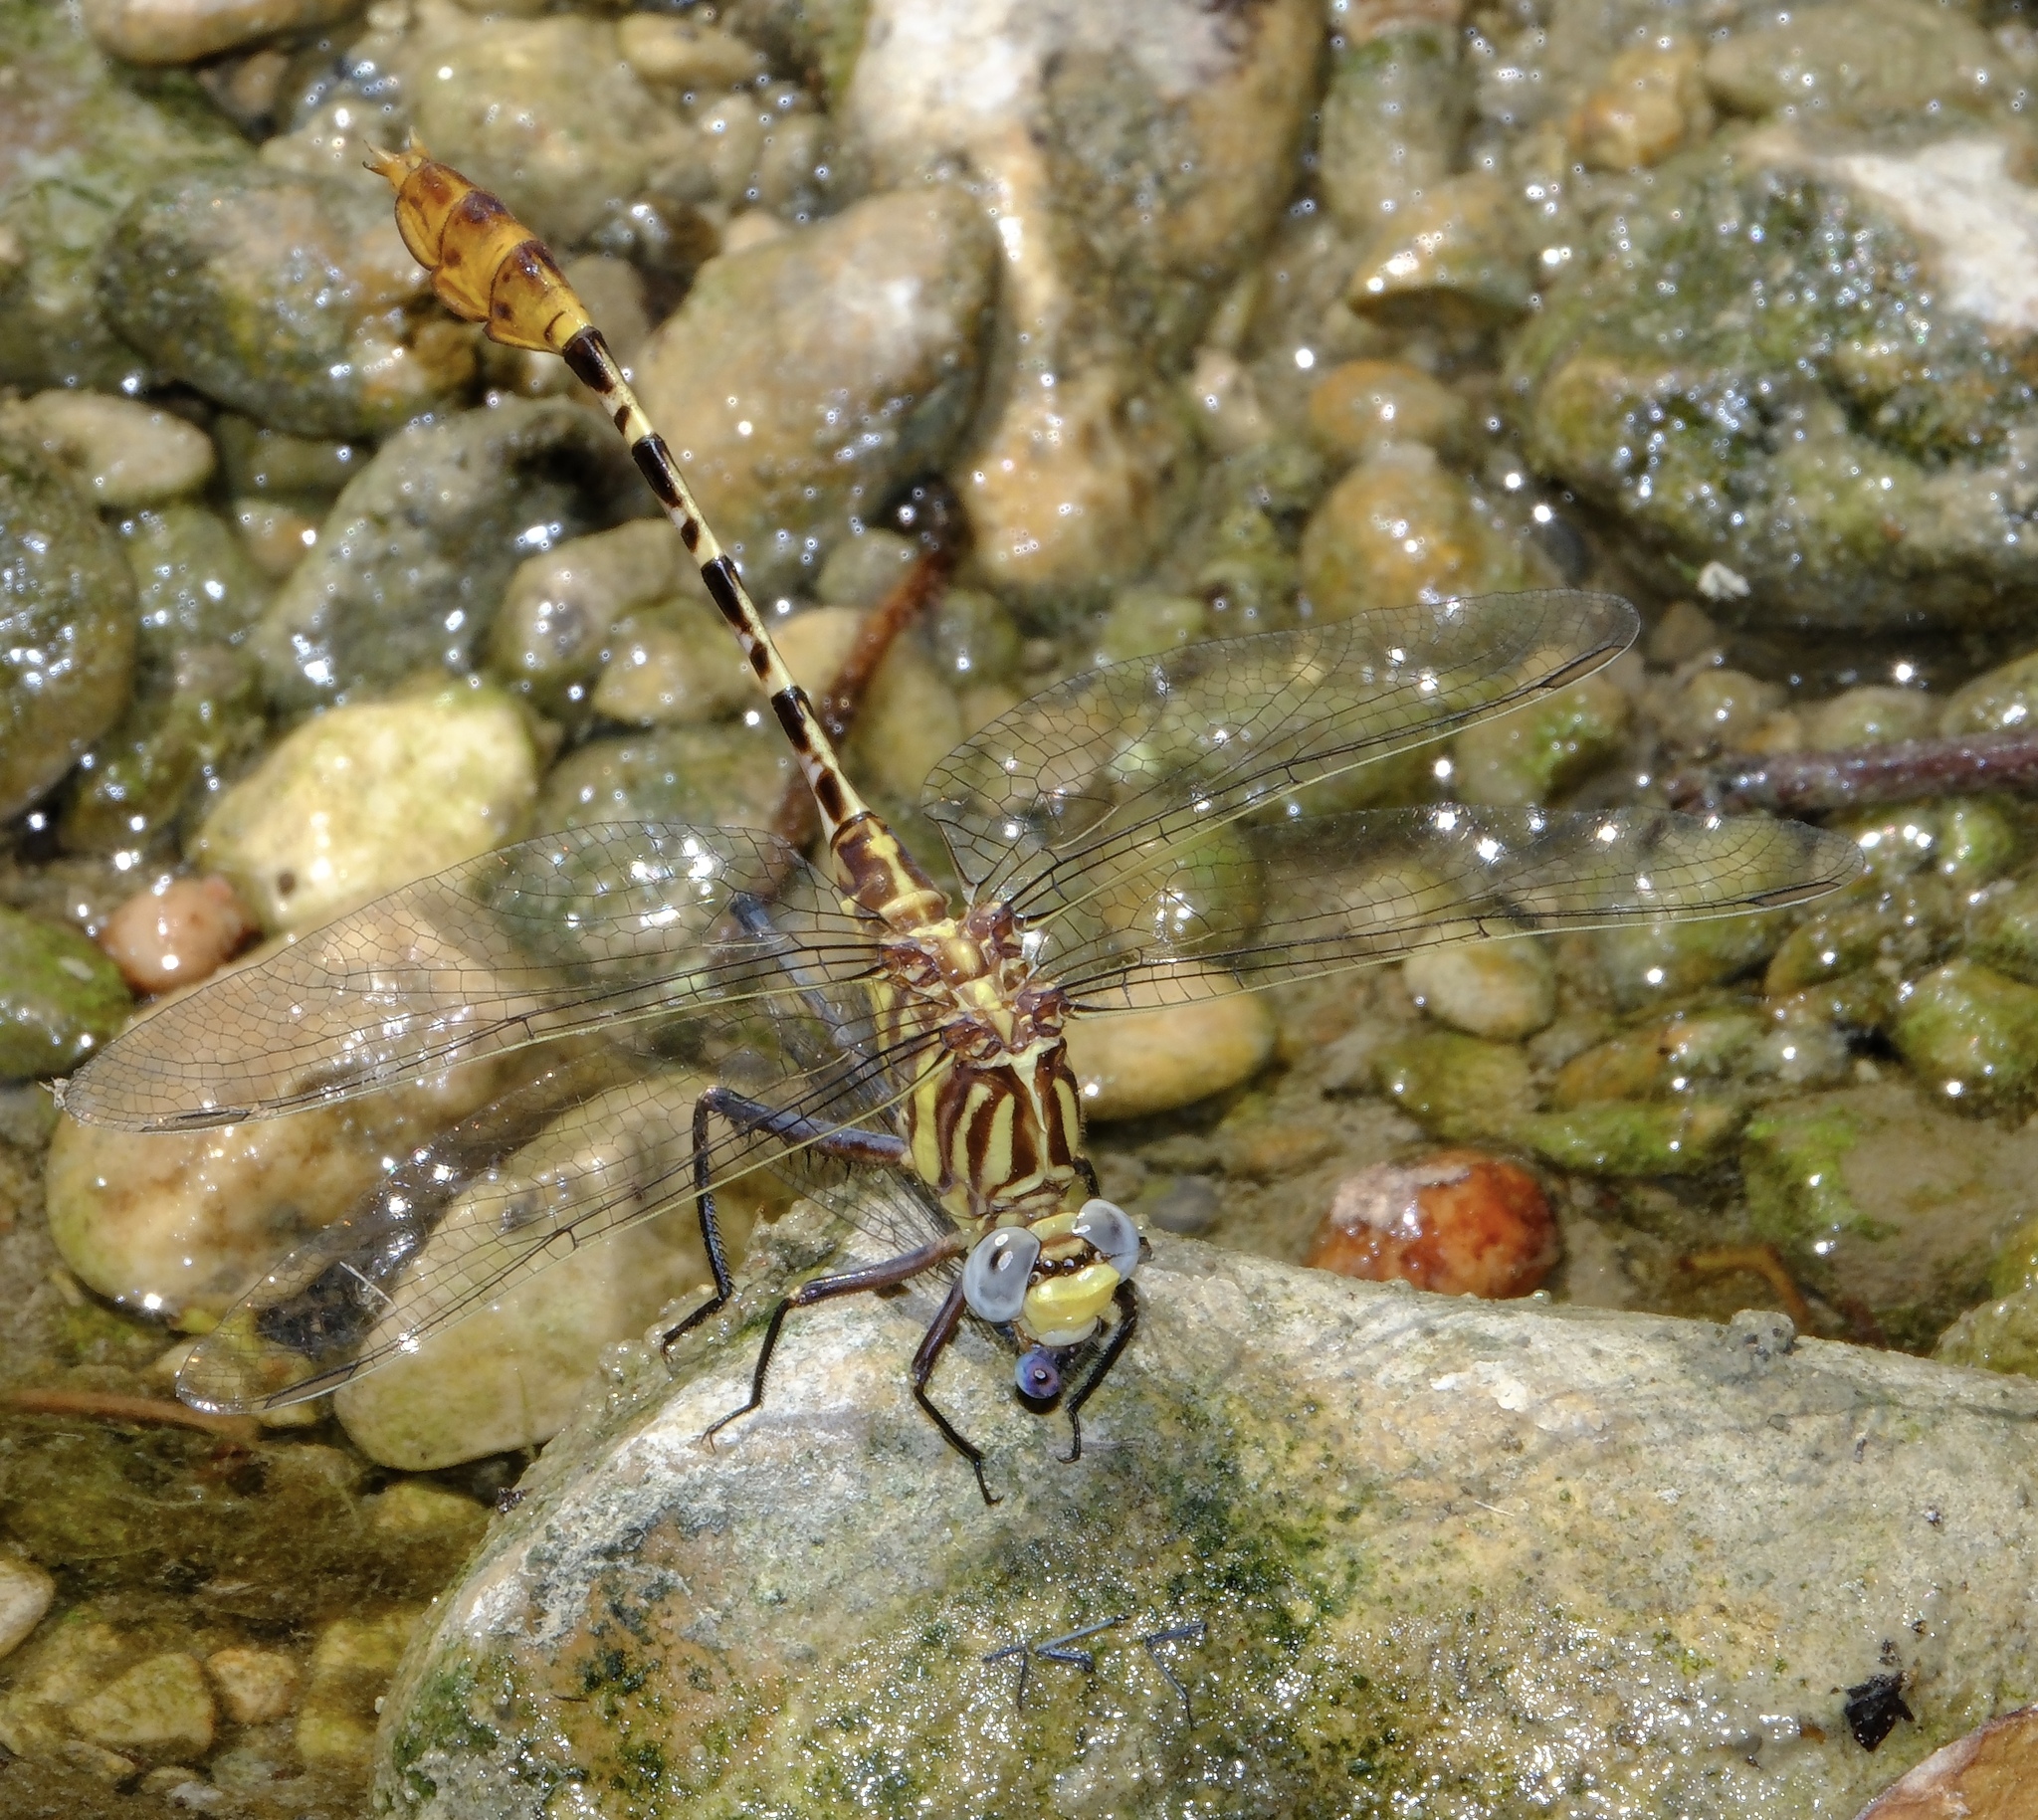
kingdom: Animalia
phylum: Arthropoda
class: Insecta
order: Odonata
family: Gomphidae
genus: Dromogomphus
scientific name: Dromogomphus spoliatus
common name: Flag-tailed spinyleg
